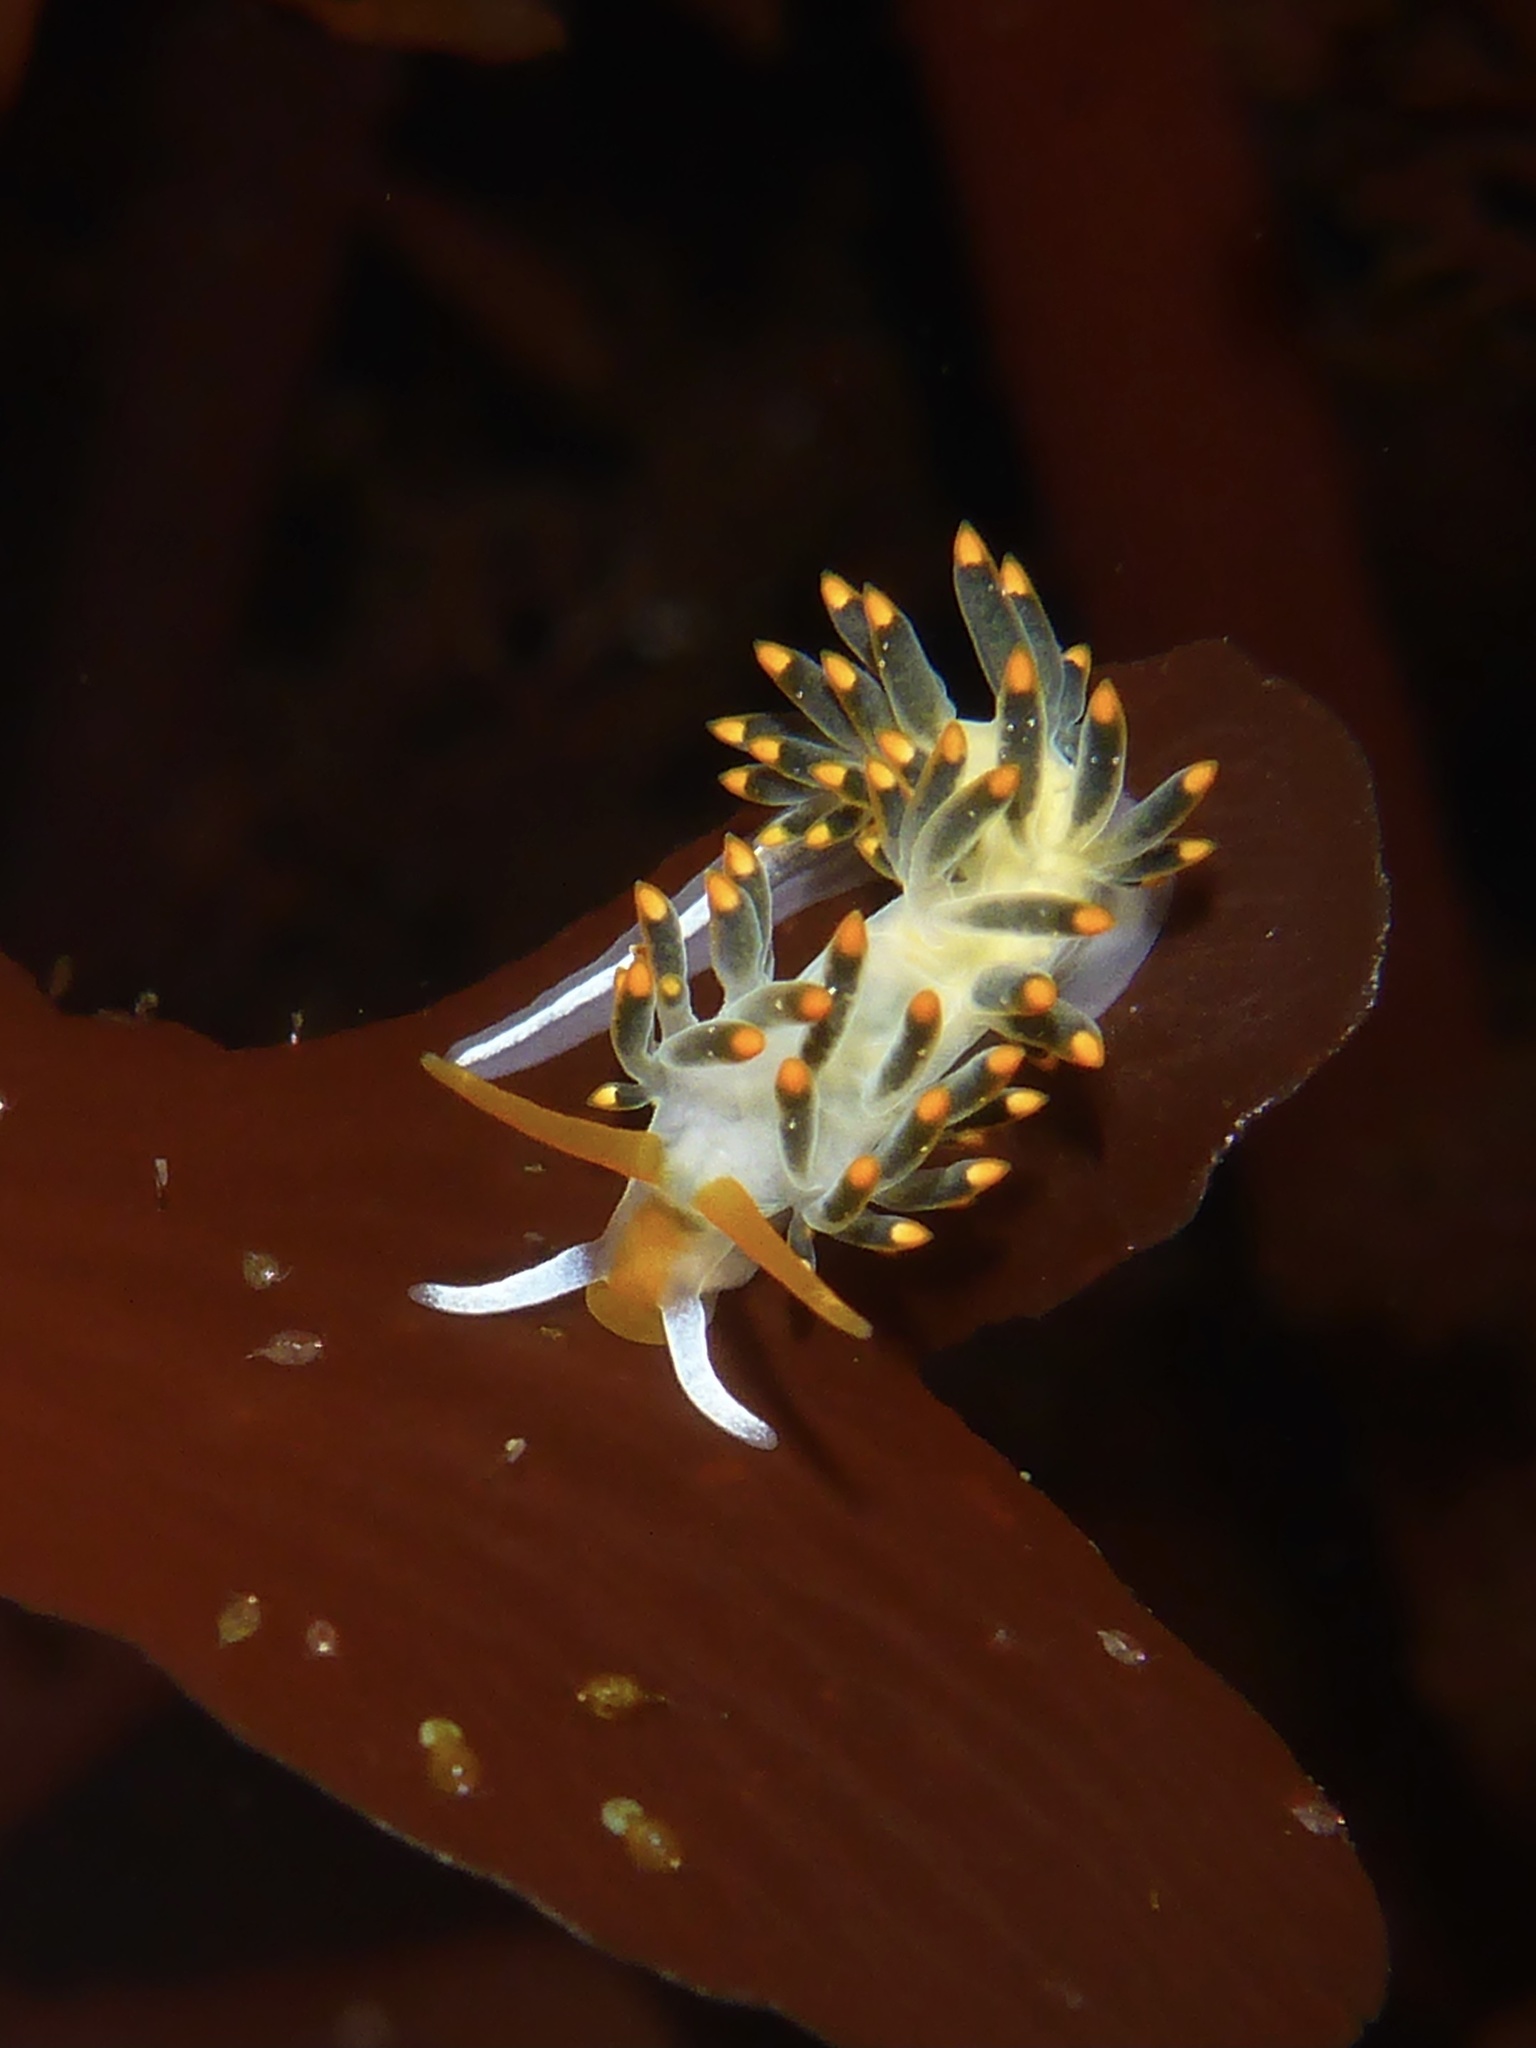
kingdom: Animalia
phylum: Mollusca
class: Gastropoda
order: Nudibranchia
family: Trinchesiidae
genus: Diaphoreolis
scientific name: Diaphoreolis lagunae
